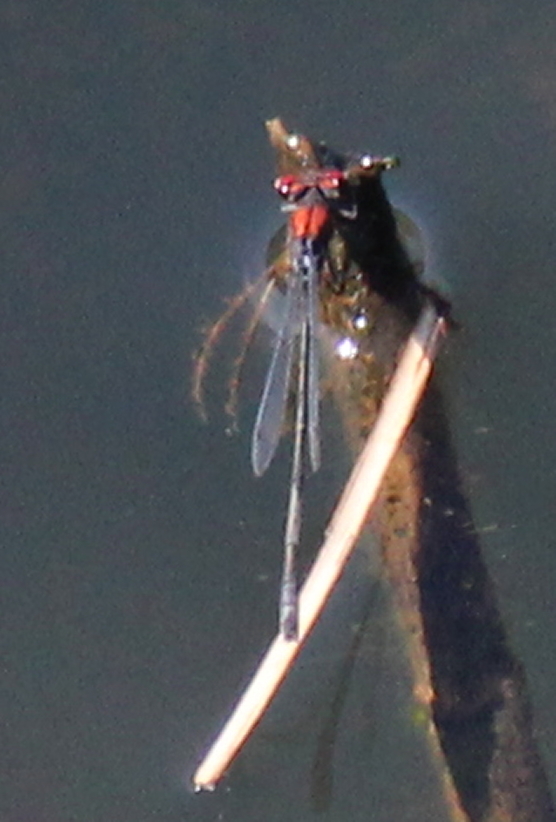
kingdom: Animalia
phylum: Arthropoda
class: Insecta
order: Odonata
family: Coenagrionidae
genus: Pseudagrion
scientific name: Pseudagrion massaicum
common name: Masai sprite
